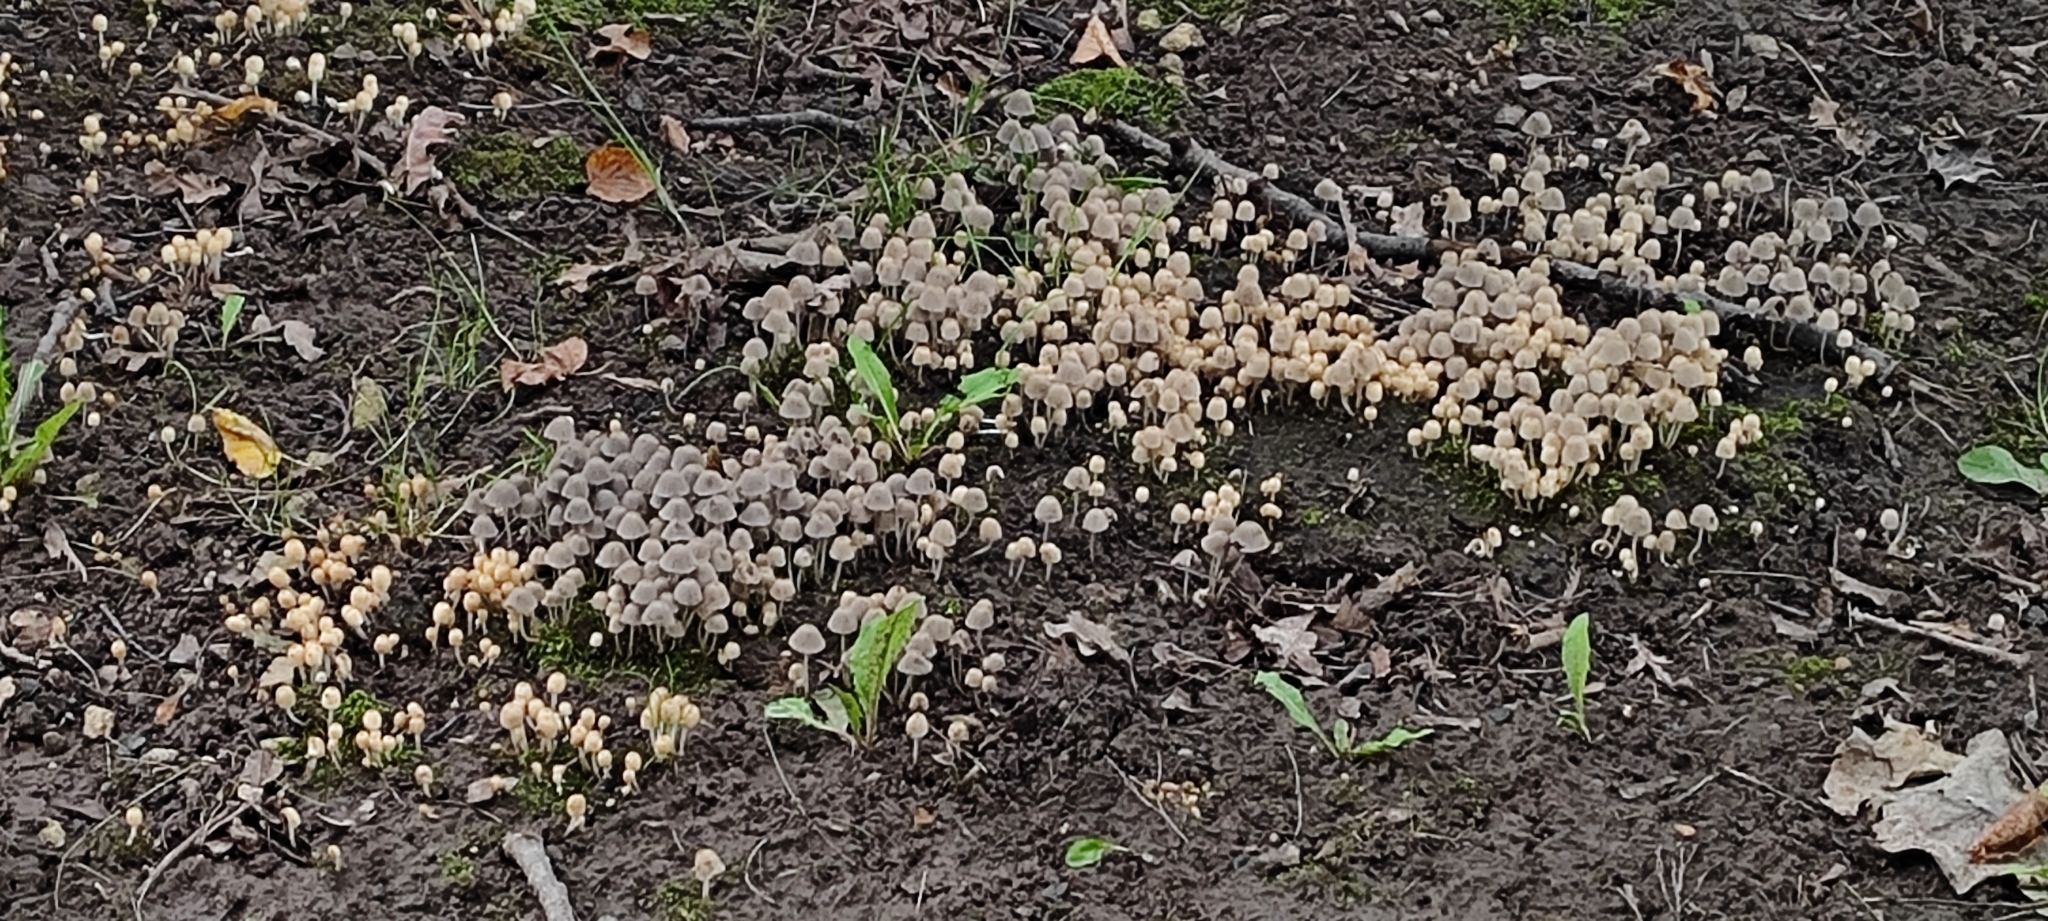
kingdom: Fungi
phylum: Basidiomycota
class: Agaricomycetes
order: Agaricales
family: Psathyrellaceae
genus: Coprinellus
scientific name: Coprinellus disseminatus
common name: Fairies' bonnets
